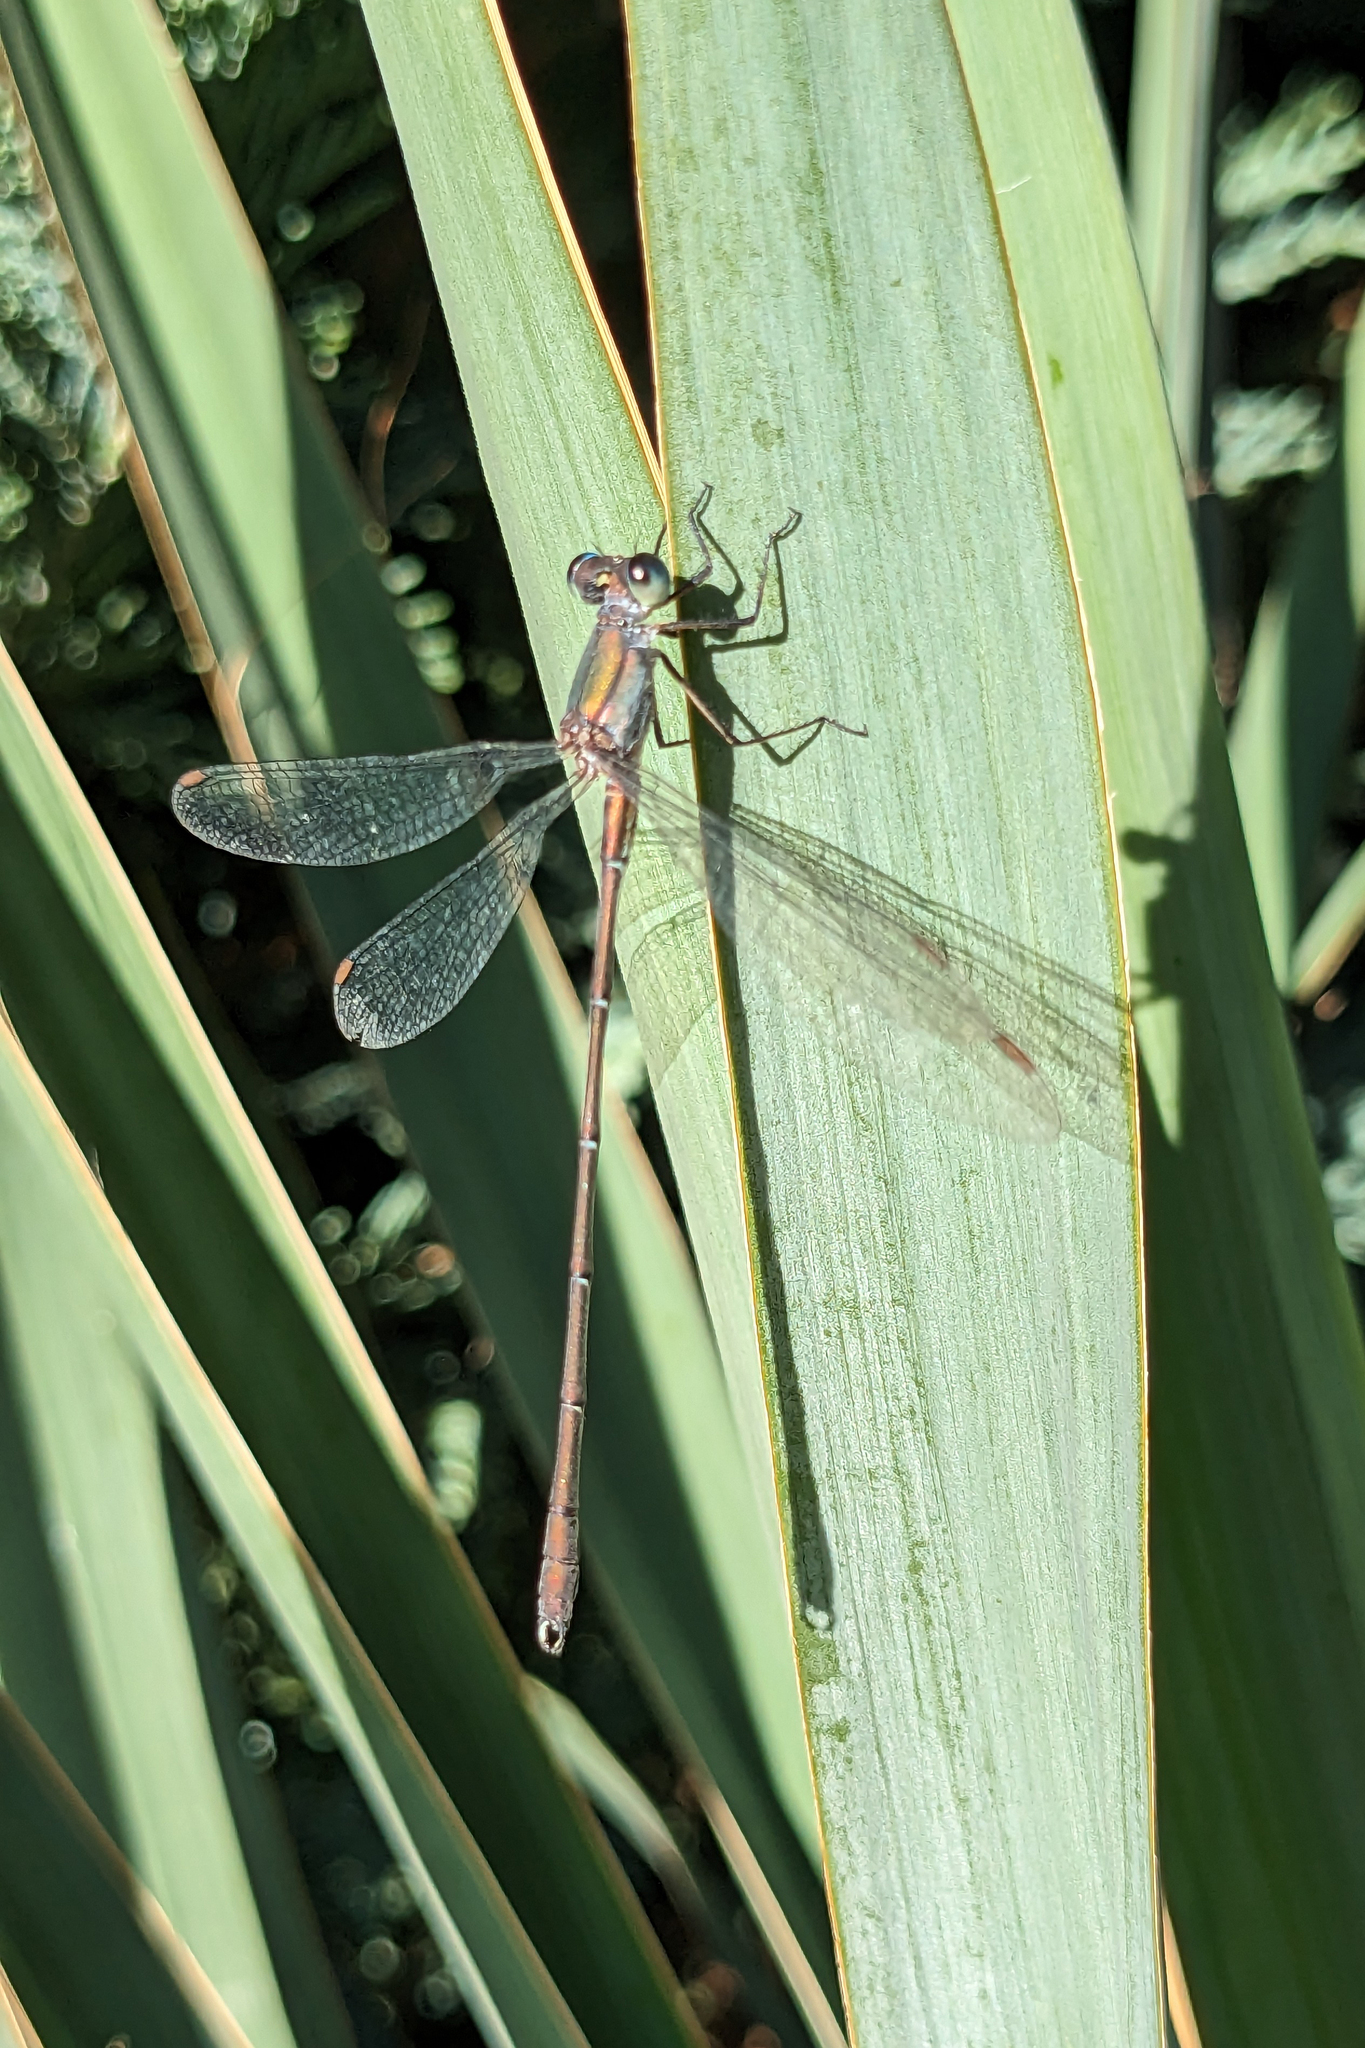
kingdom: Animalia
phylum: Arthropoda
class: Insecta
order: Odonata
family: Lestidae
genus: Chalcolestes
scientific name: Chalcolestes viridis
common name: Green emerald damselfly
